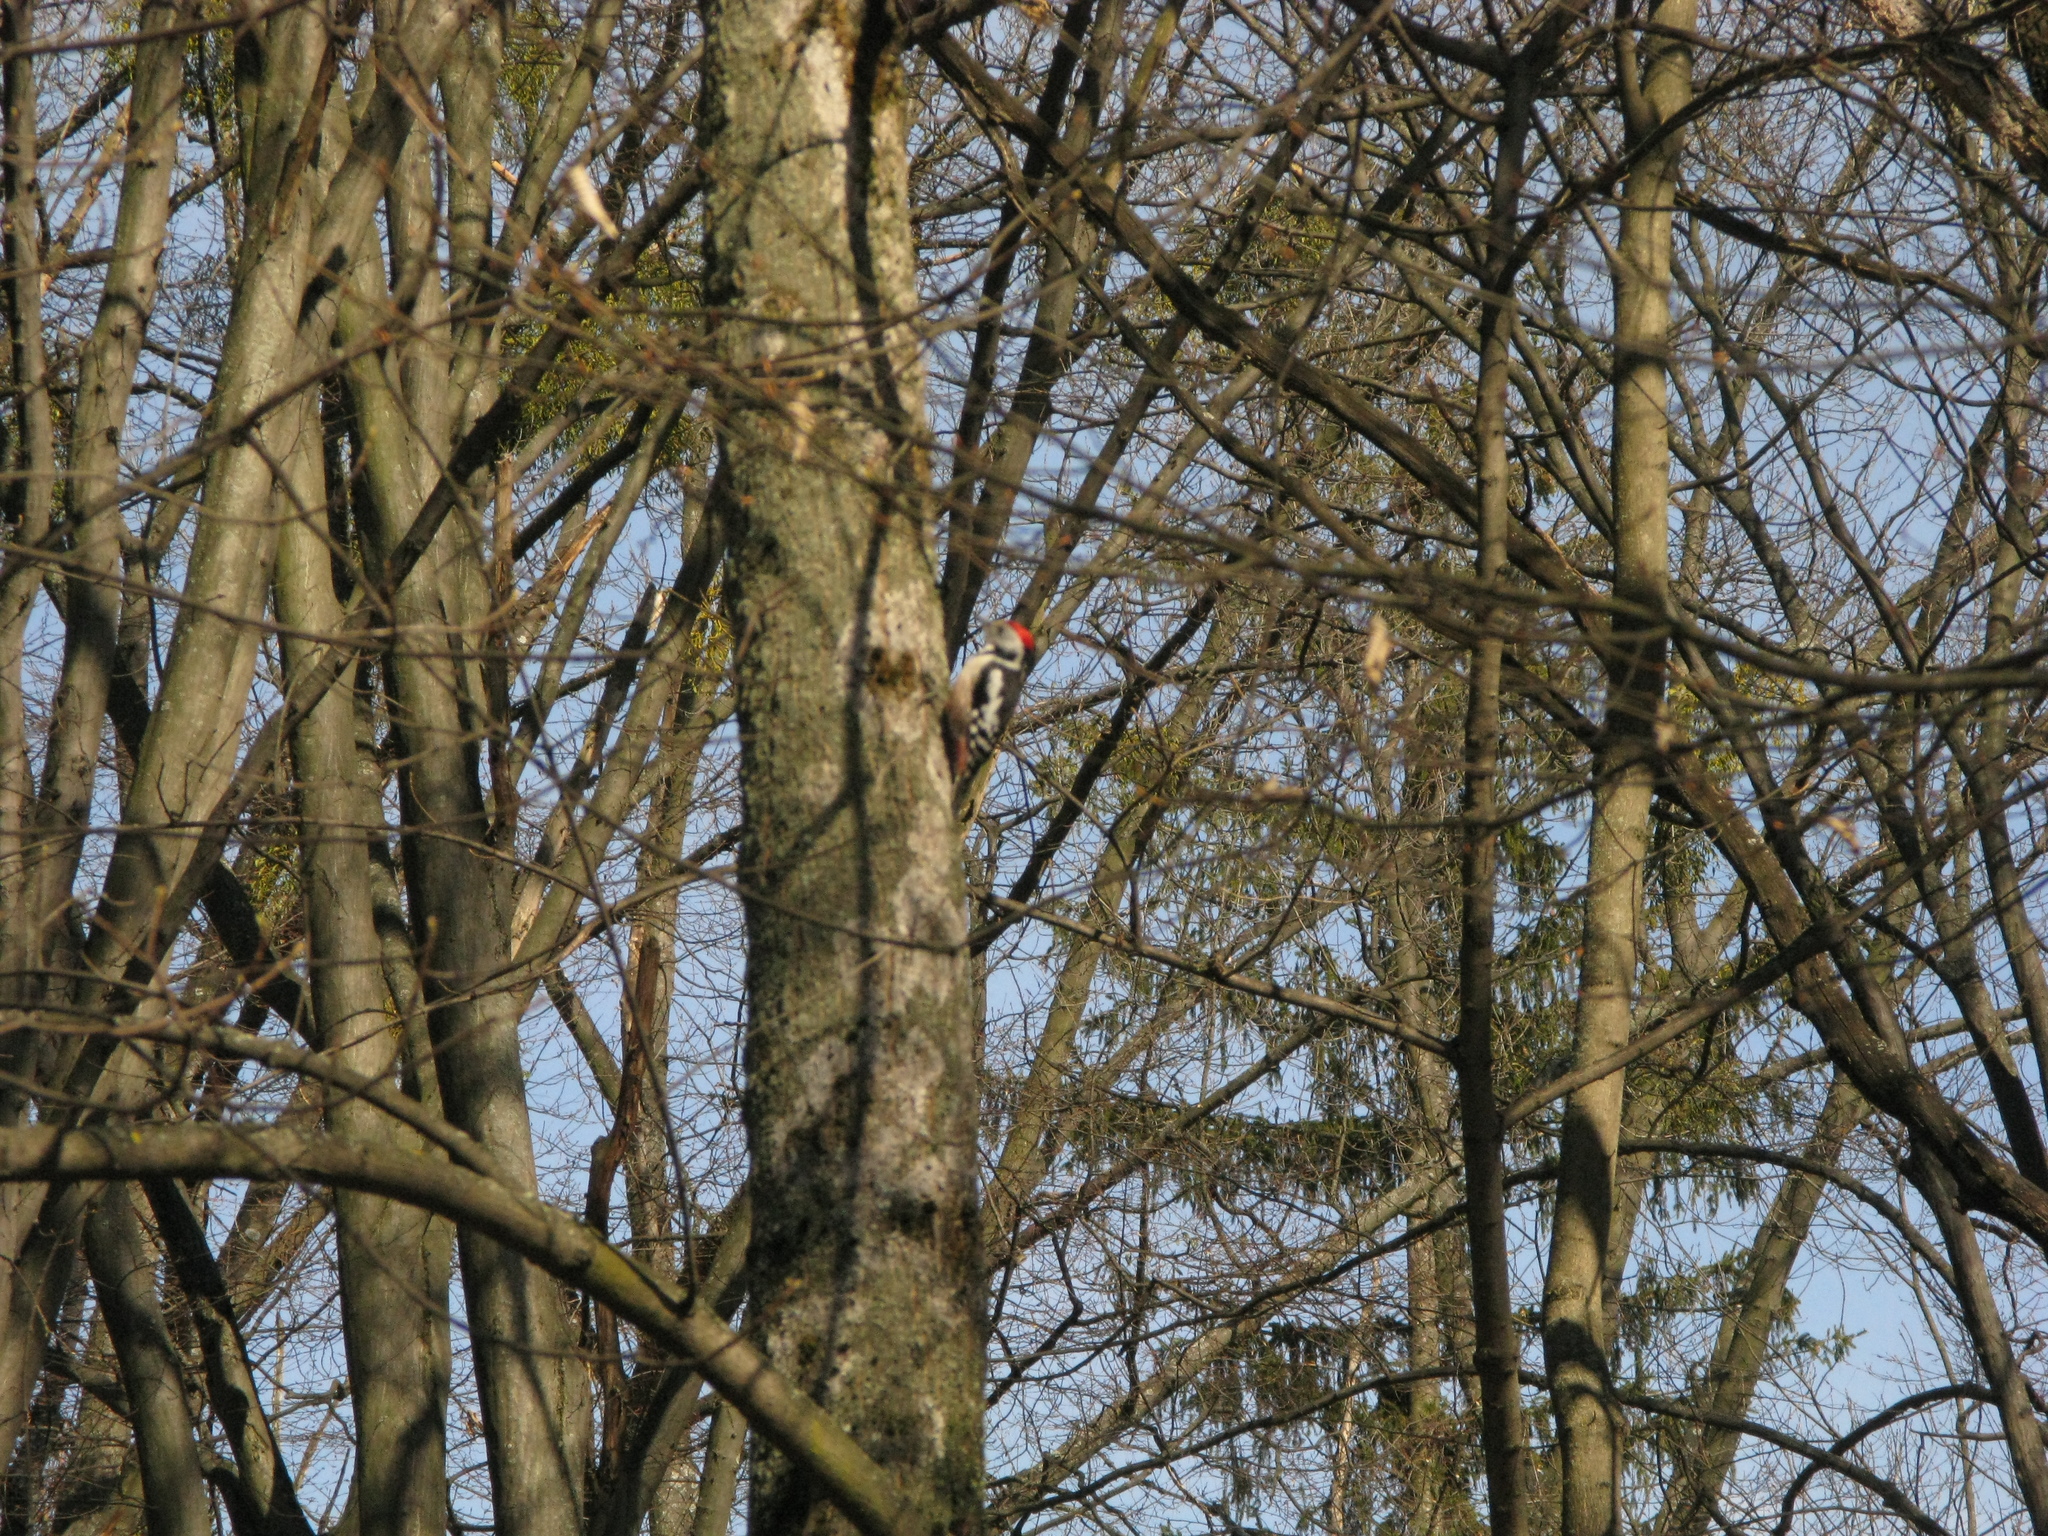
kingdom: Animalia
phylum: Chordata
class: Aves
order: Piciformes
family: Picidae
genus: Dendrocoptes
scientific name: Dendrocoptes medius
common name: Middle spotted woodpecker
